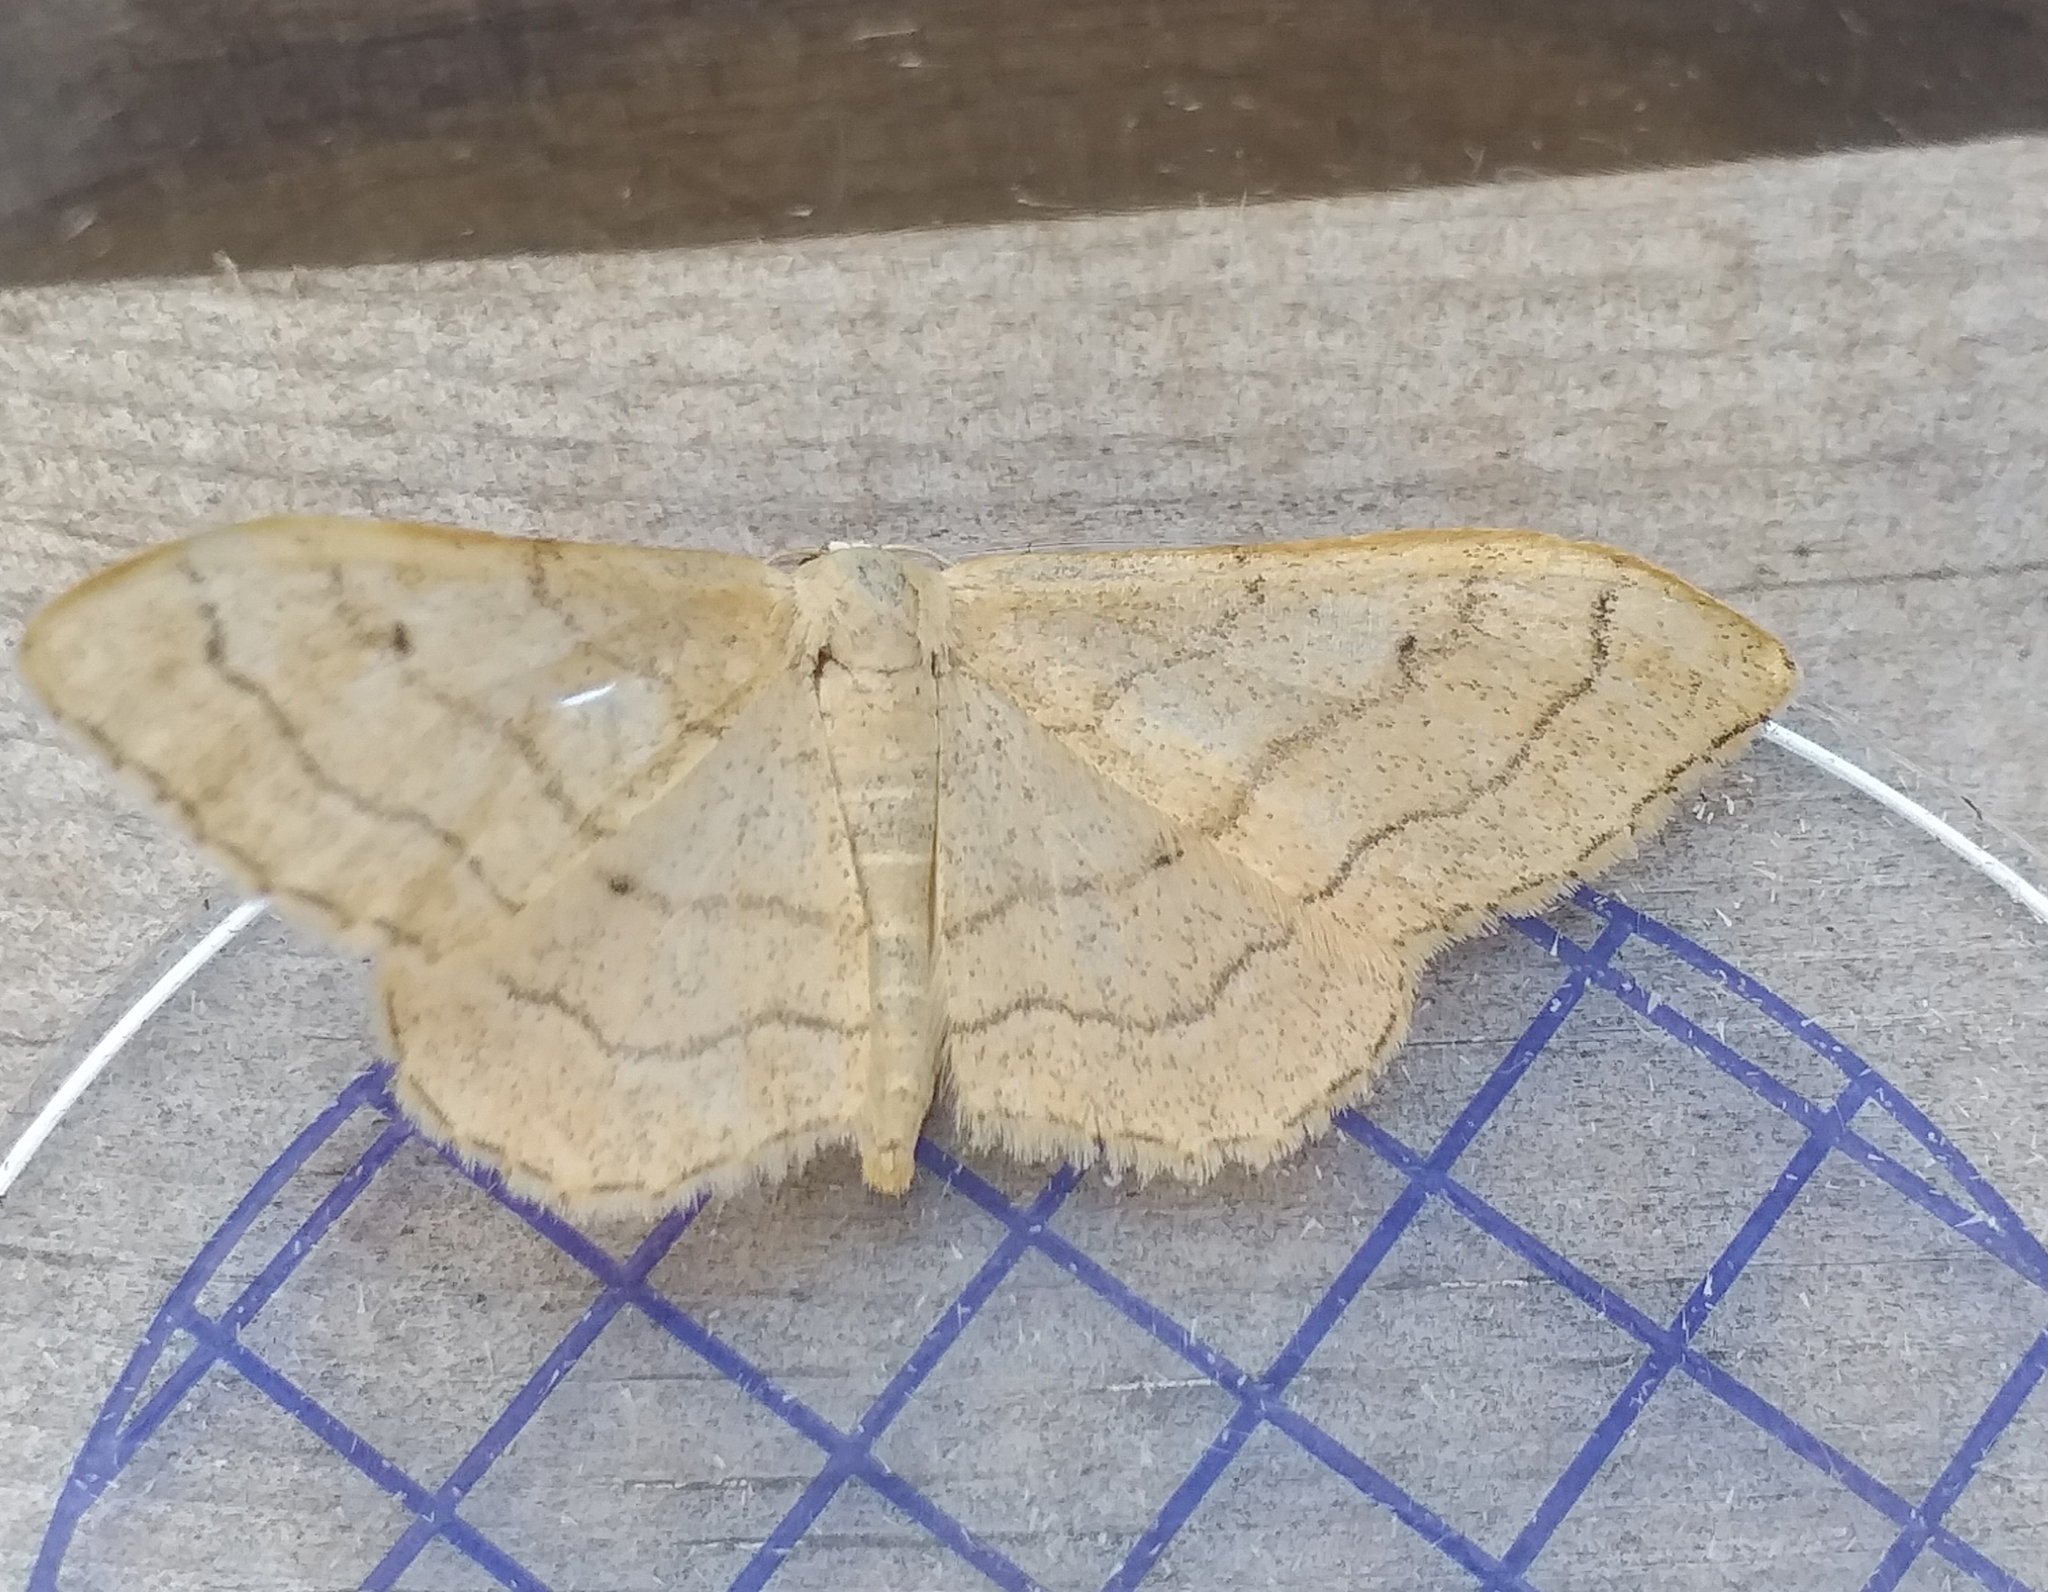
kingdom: Animalia
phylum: Arthropoda
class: Insecta
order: Lepidoptera
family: Geometridae
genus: Idaea
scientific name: Idaea aversata
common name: Riband wave
